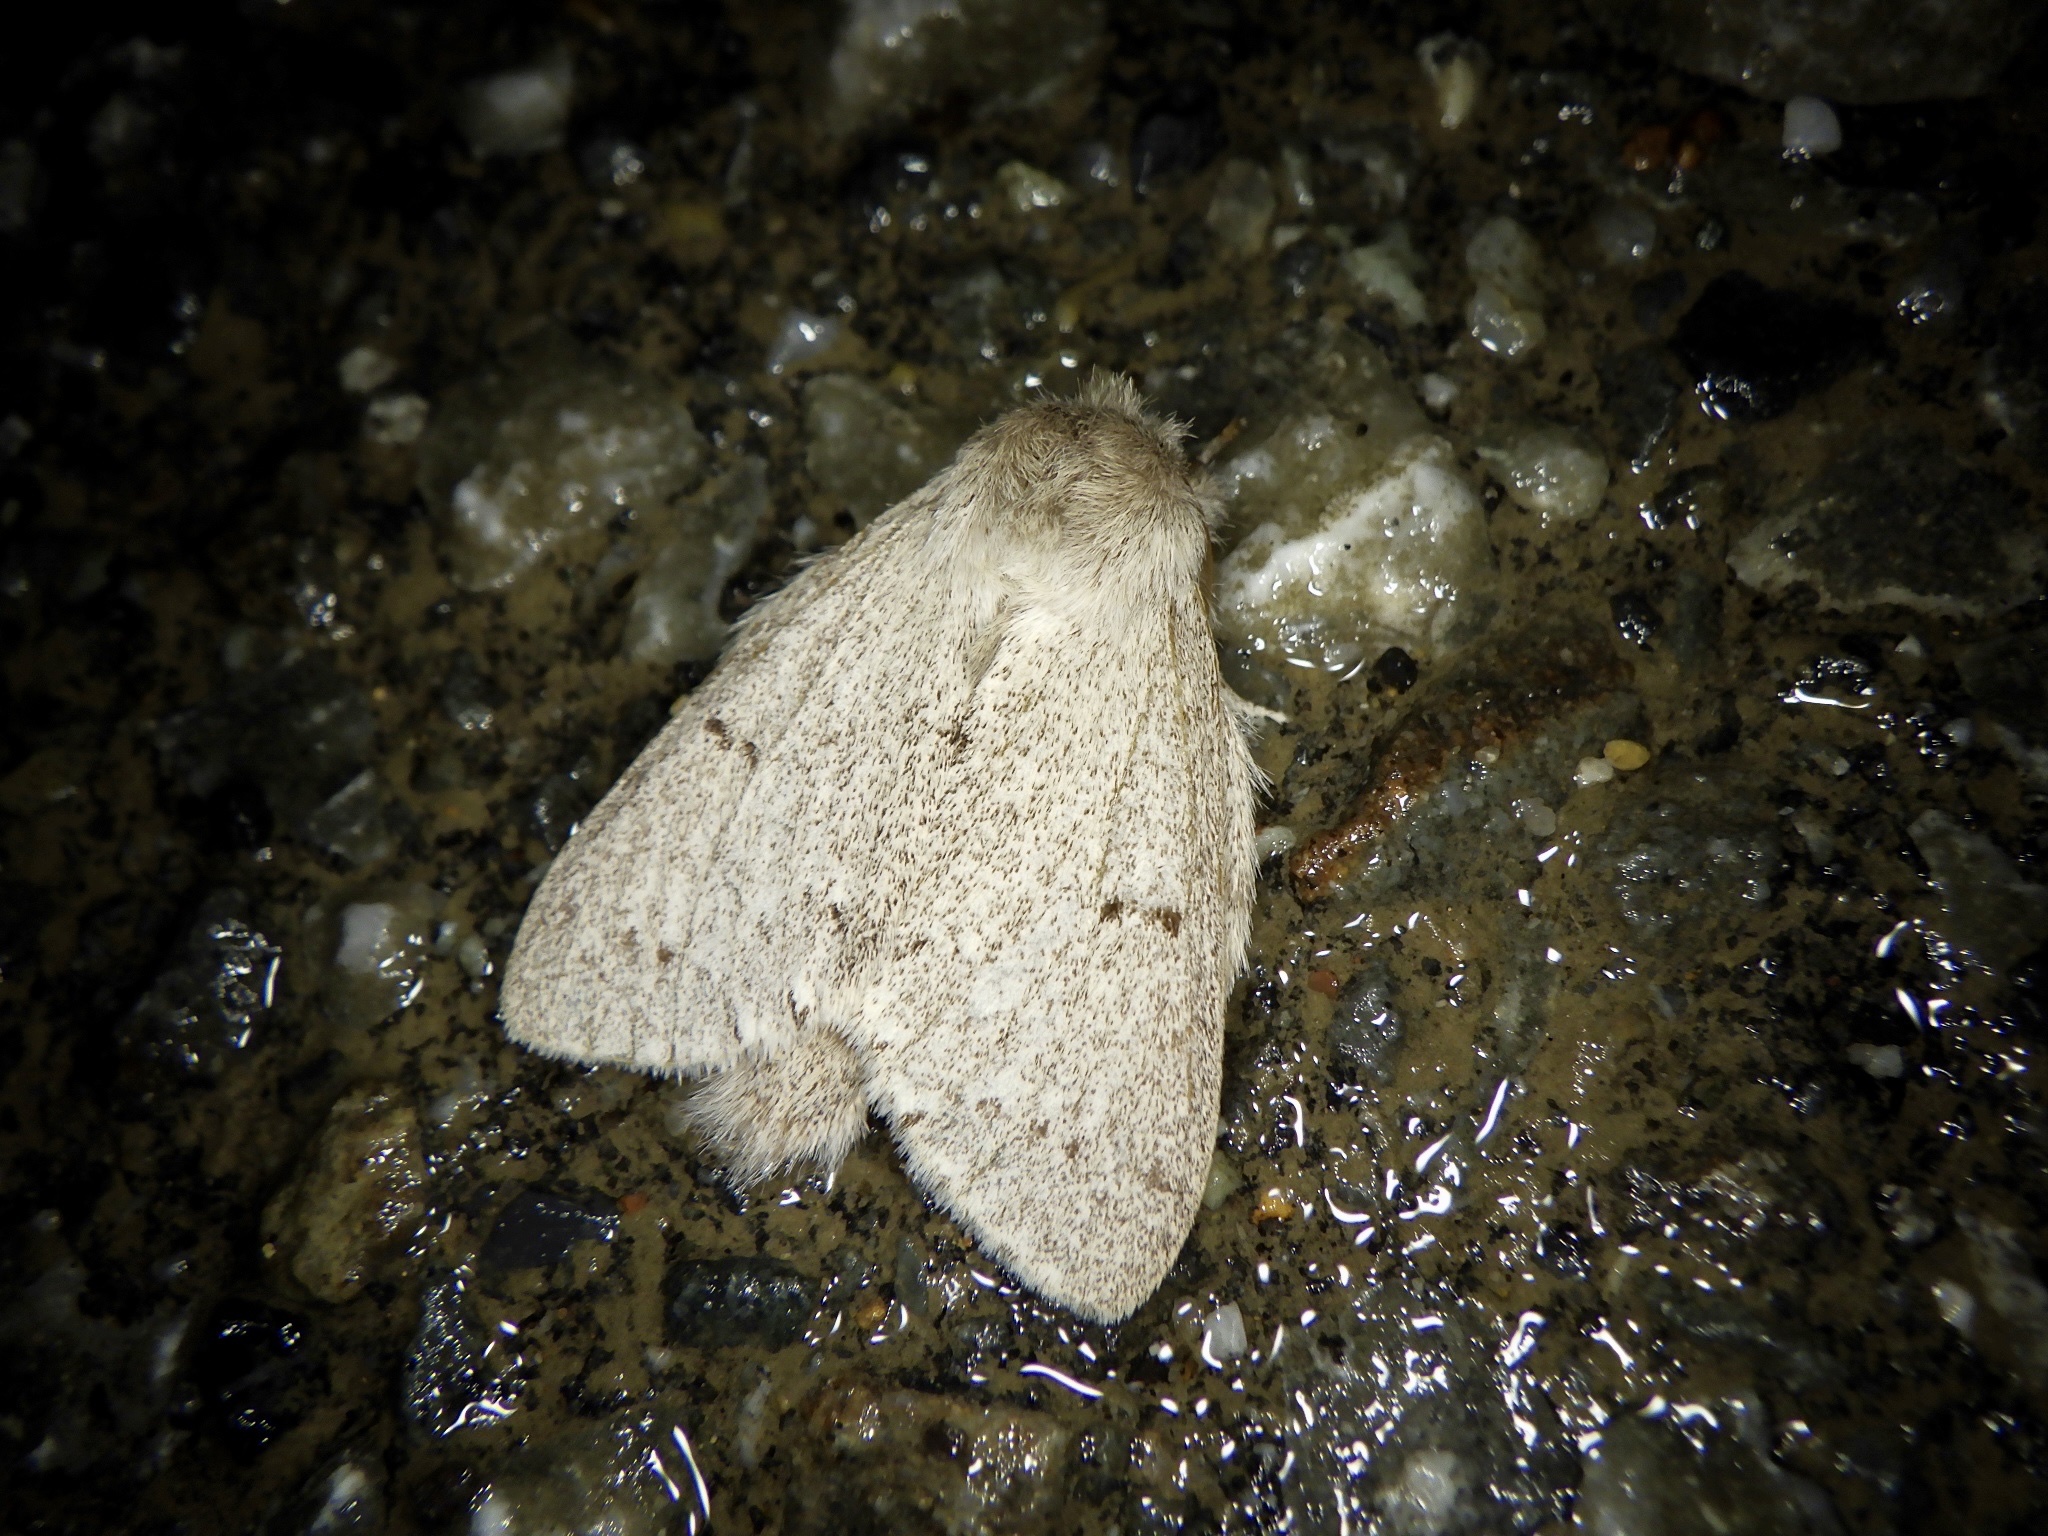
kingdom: Animalia
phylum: Arthropoda
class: Insecta
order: Lepidoptera
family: Notodontidae
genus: Cnethodonta
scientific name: Cnethodonta grisescens
